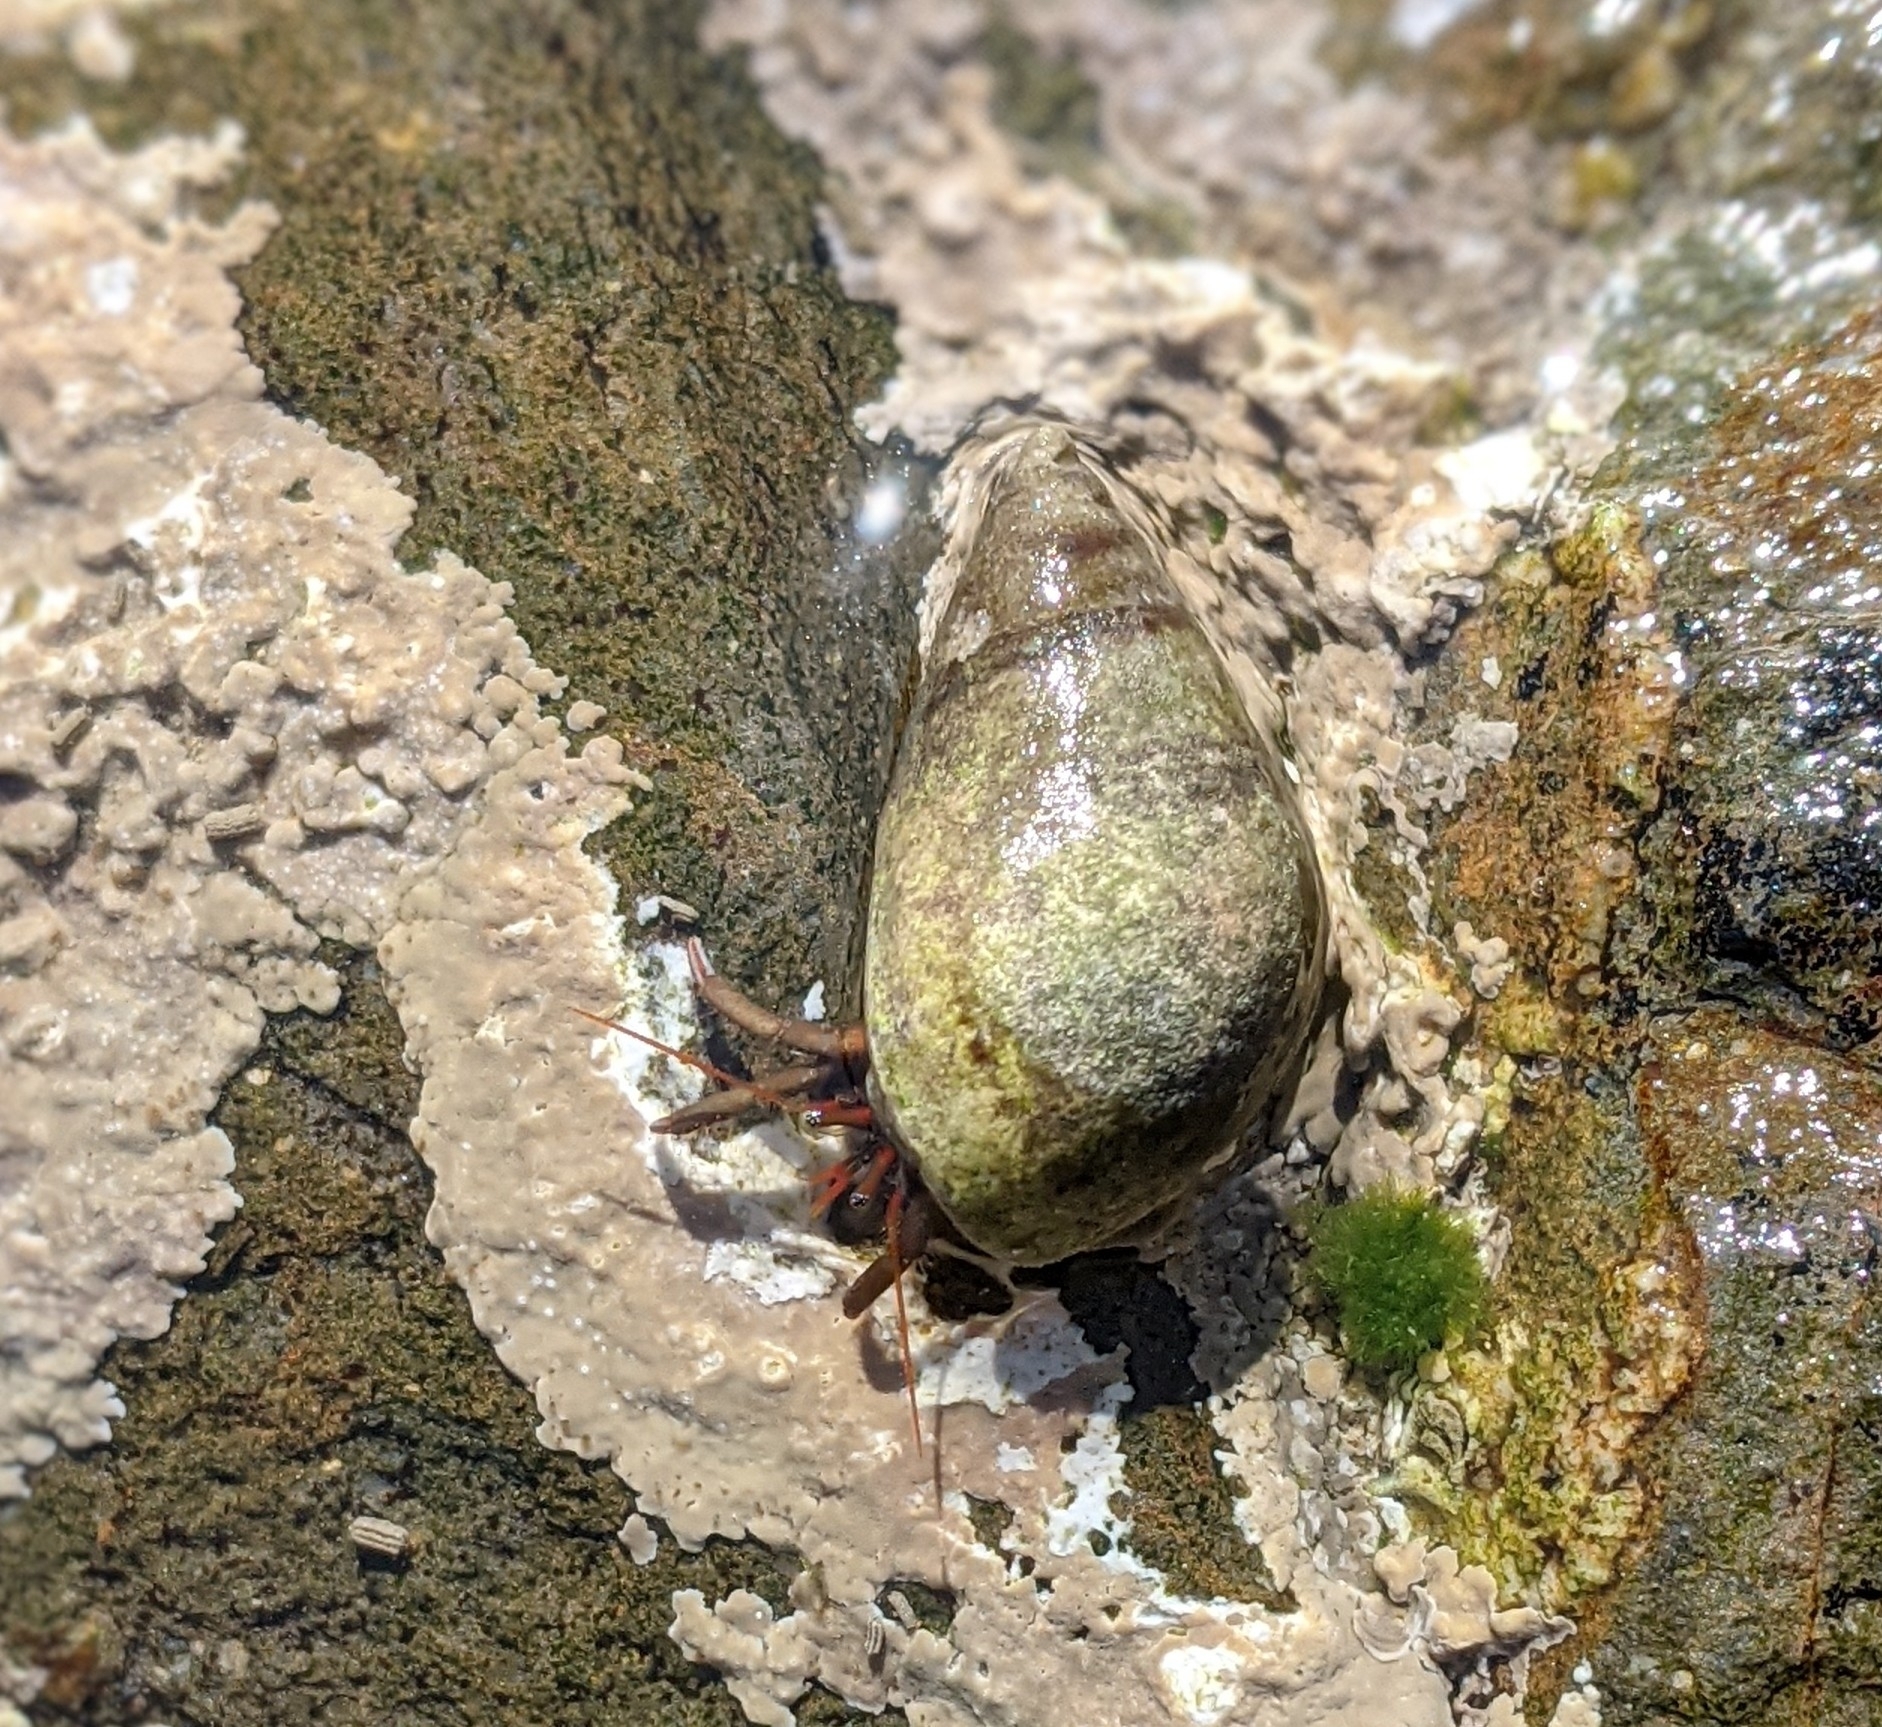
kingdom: Animalia
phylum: Arthropoda
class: Malacostraca
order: Decapoda
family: Diogenidae
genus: Clibanarius
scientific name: Clibanarius erythropus
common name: Hermit crab
